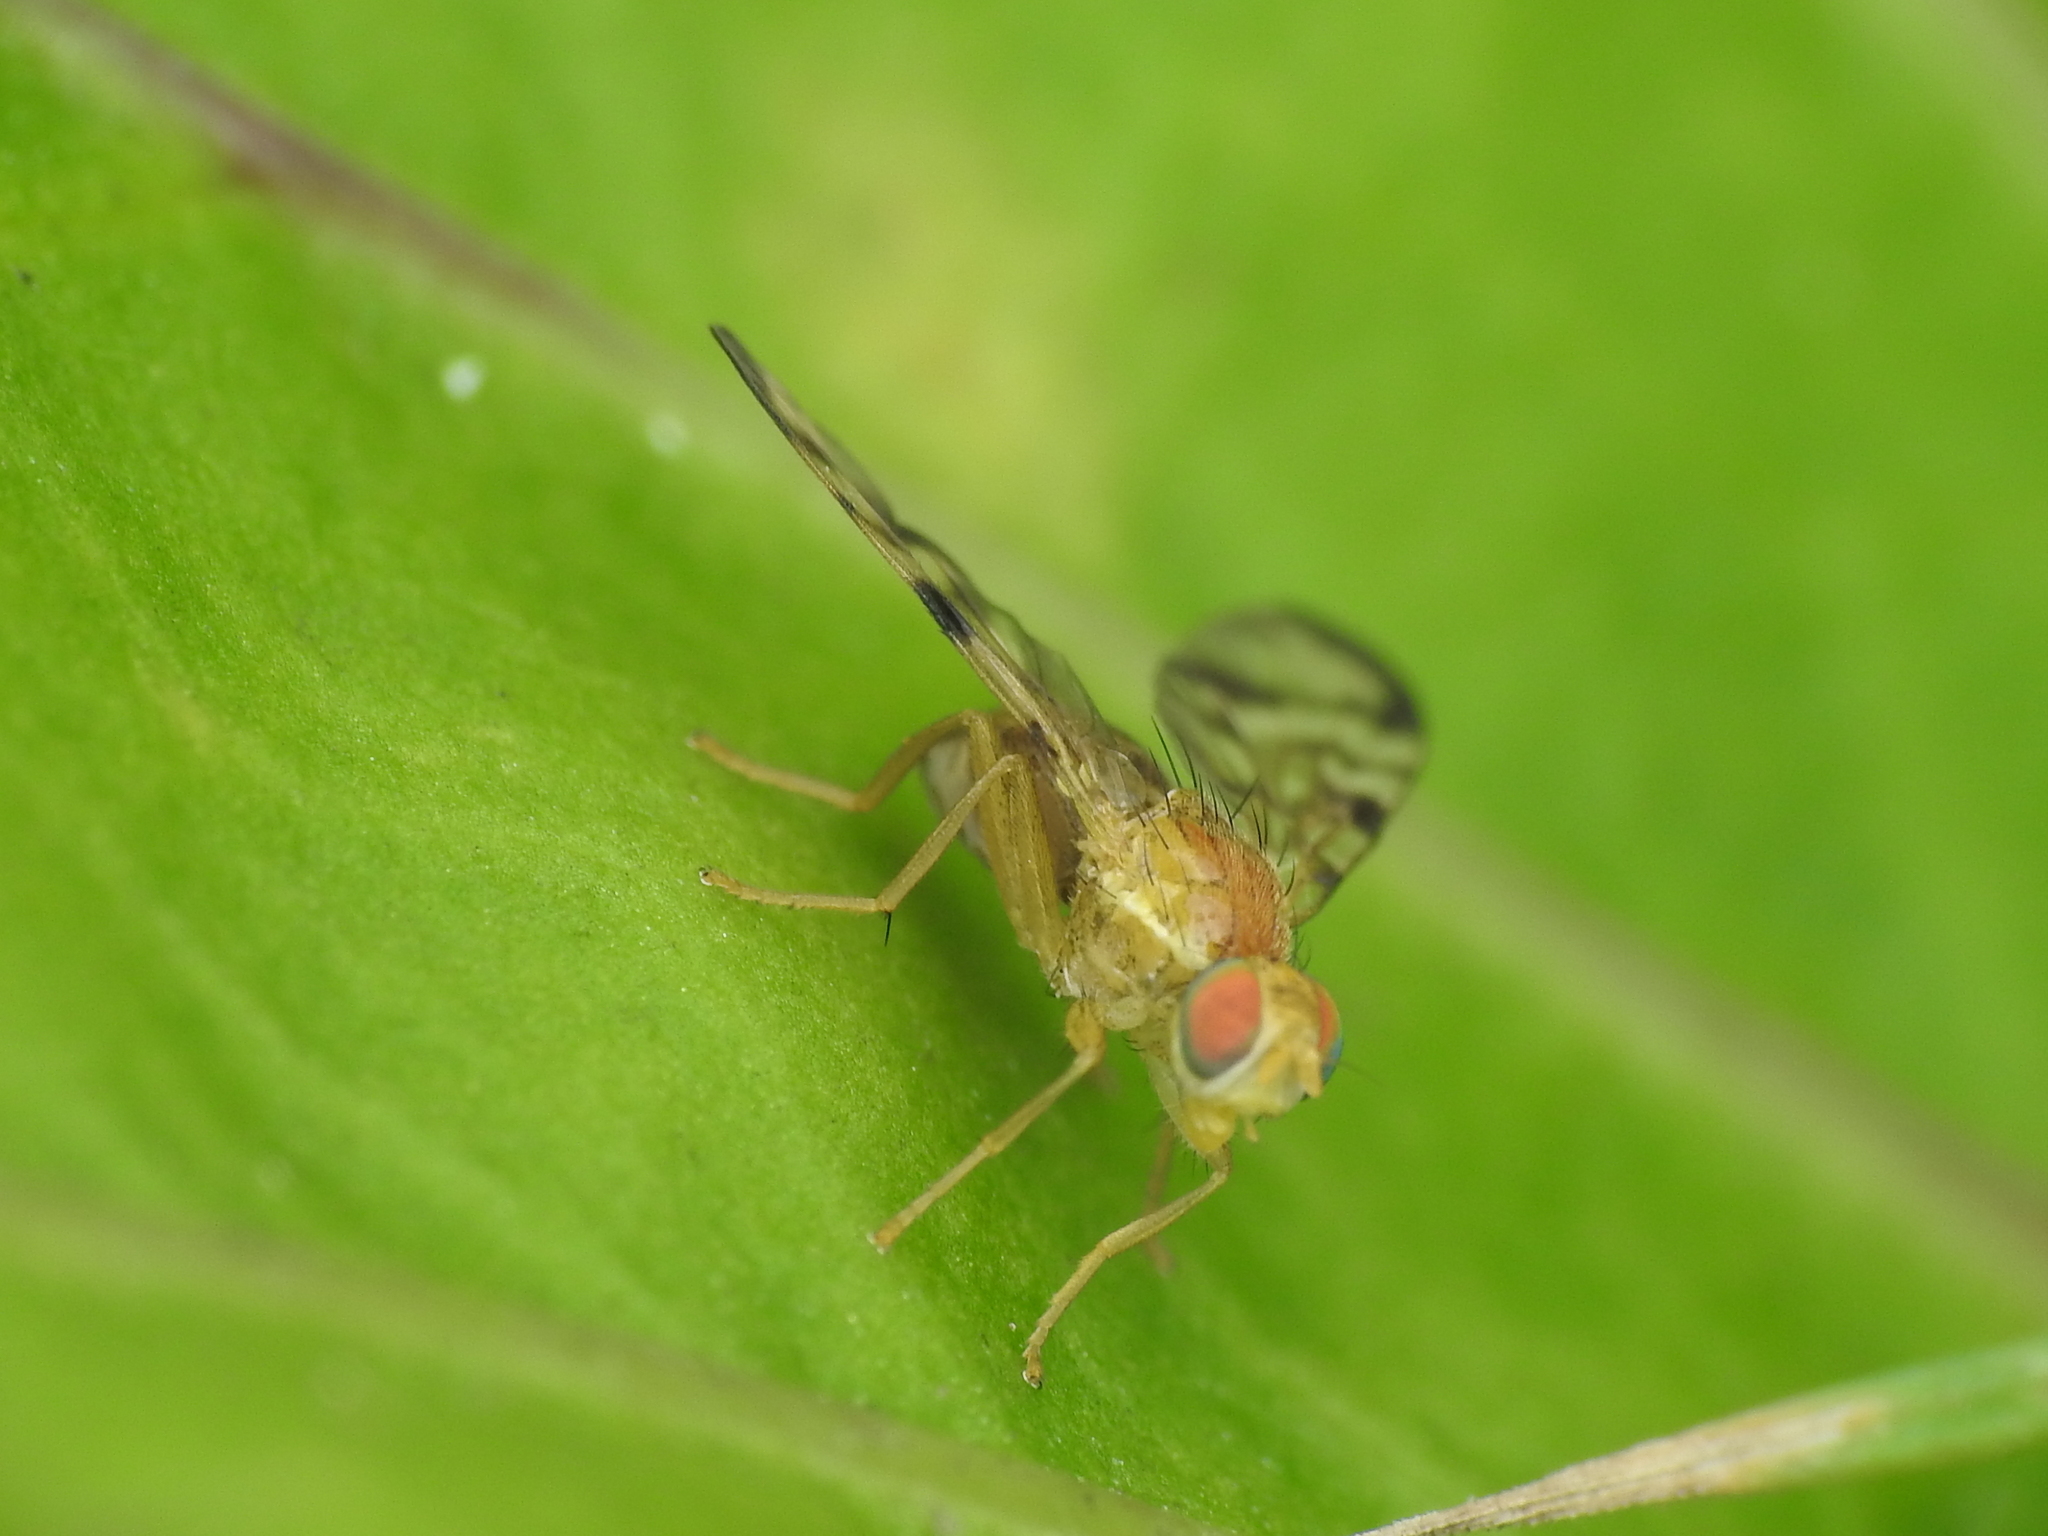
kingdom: Animalia
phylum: Arthropoda
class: Insecta
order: Diptera
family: Tephritidae
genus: Acidia
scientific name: Acidia cognata
